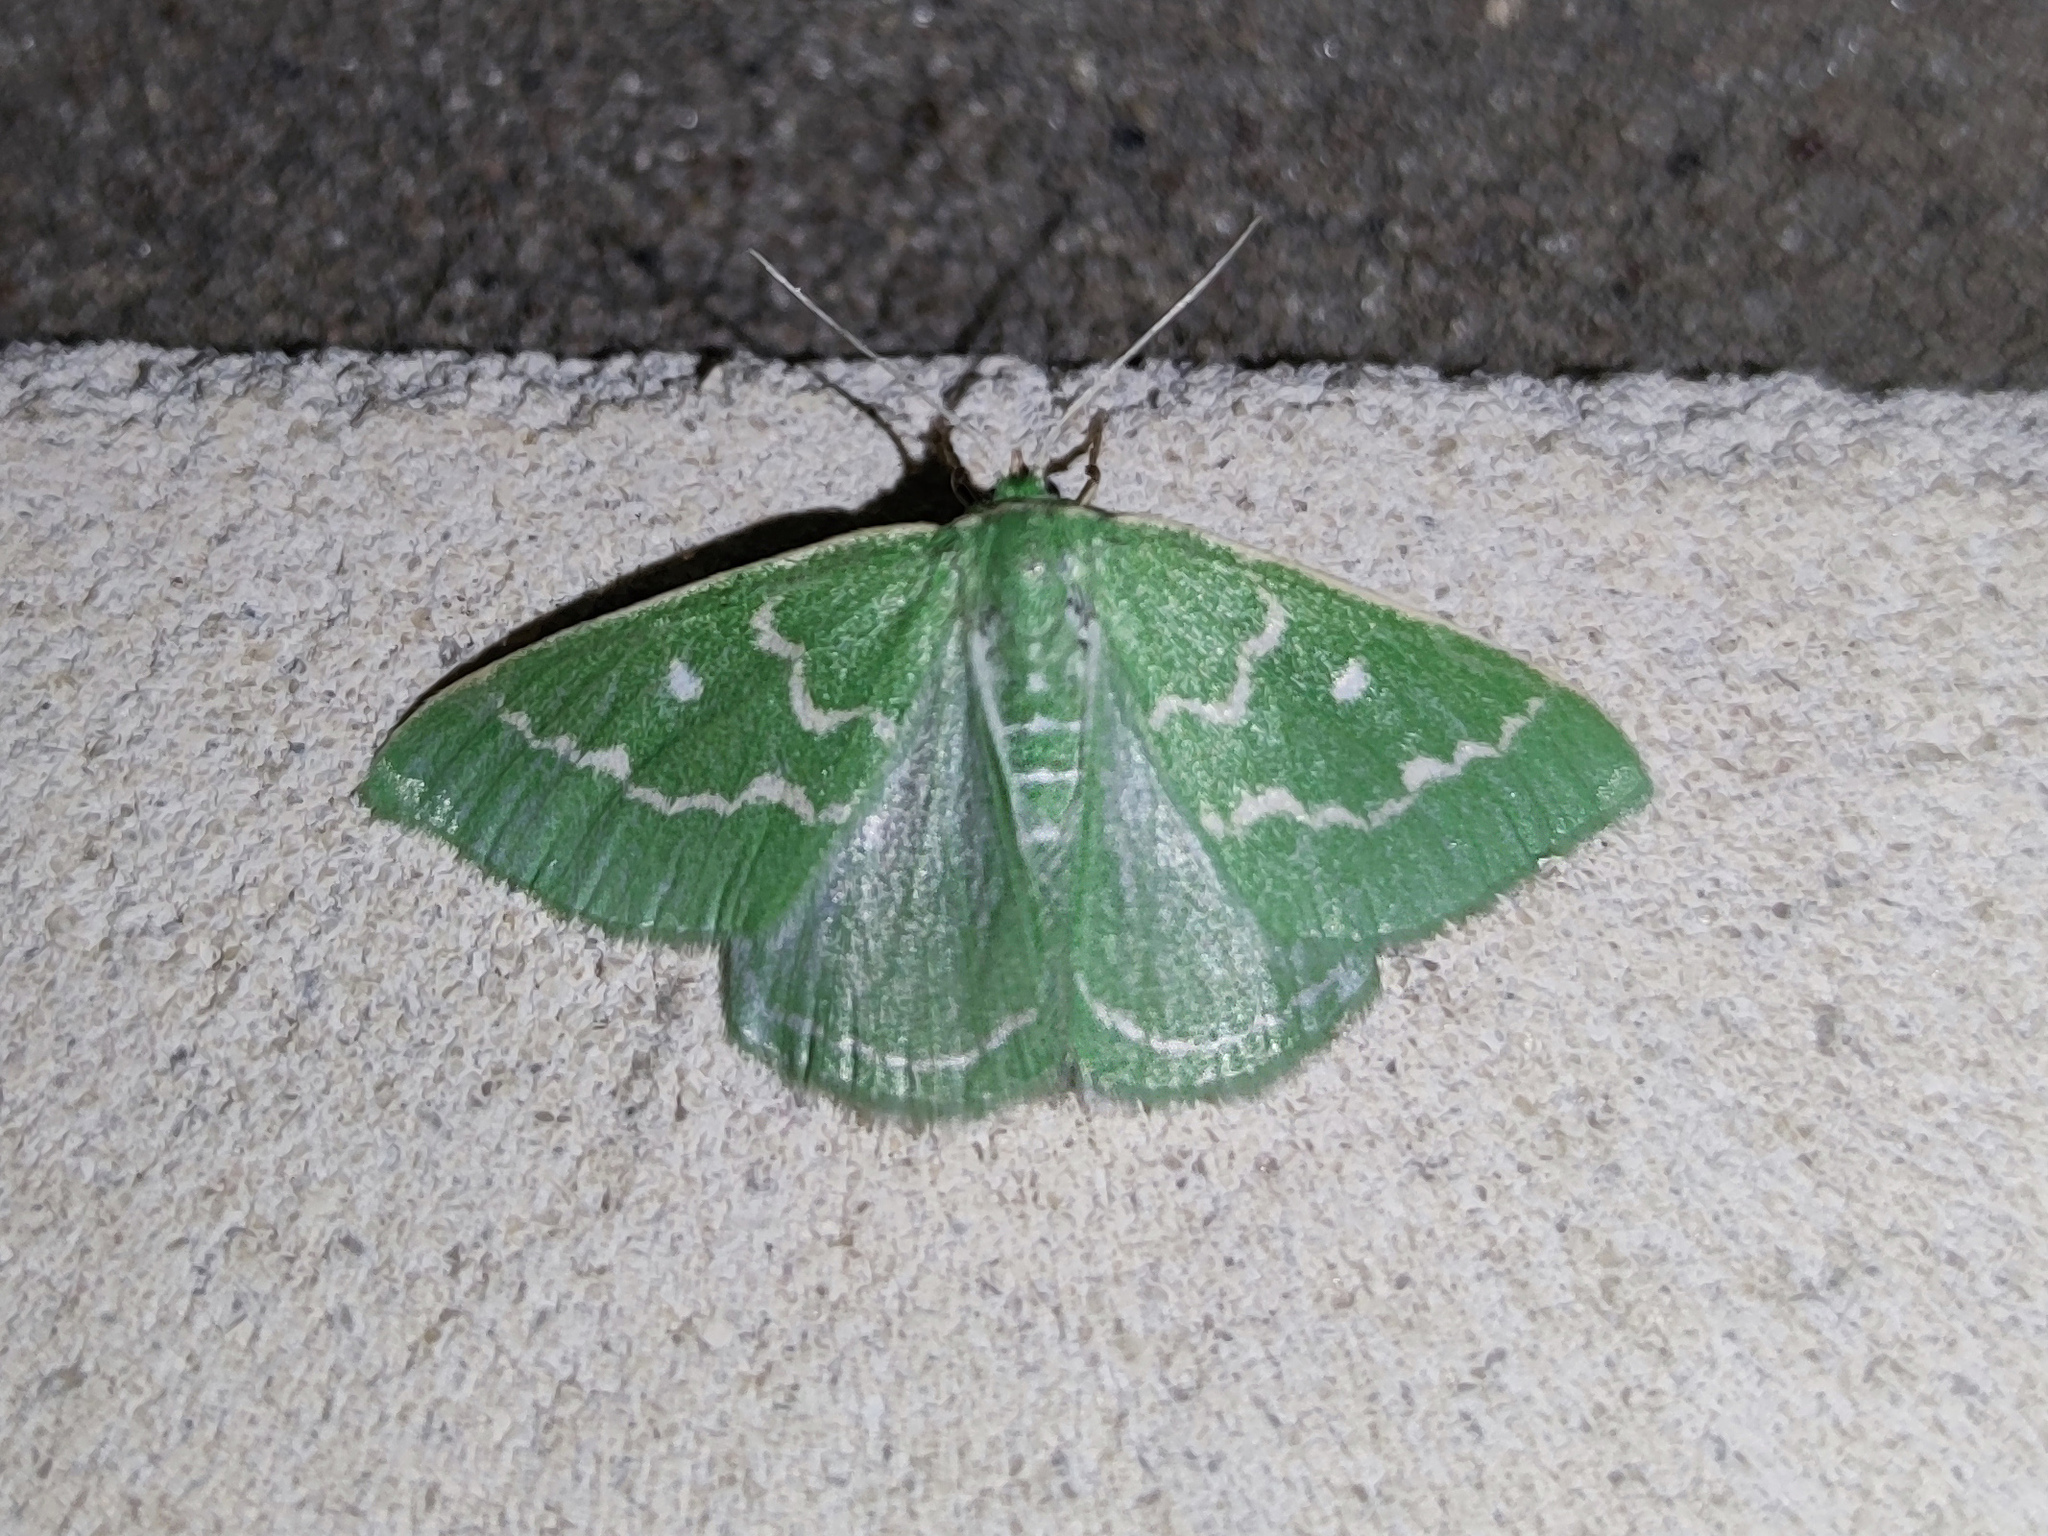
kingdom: Animalia
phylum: Arthropoda
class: Insecta
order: Lepidoptera
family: Geometridae
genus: Thetidia
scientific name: Thetidia smaragdaria
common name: Essex emerald
